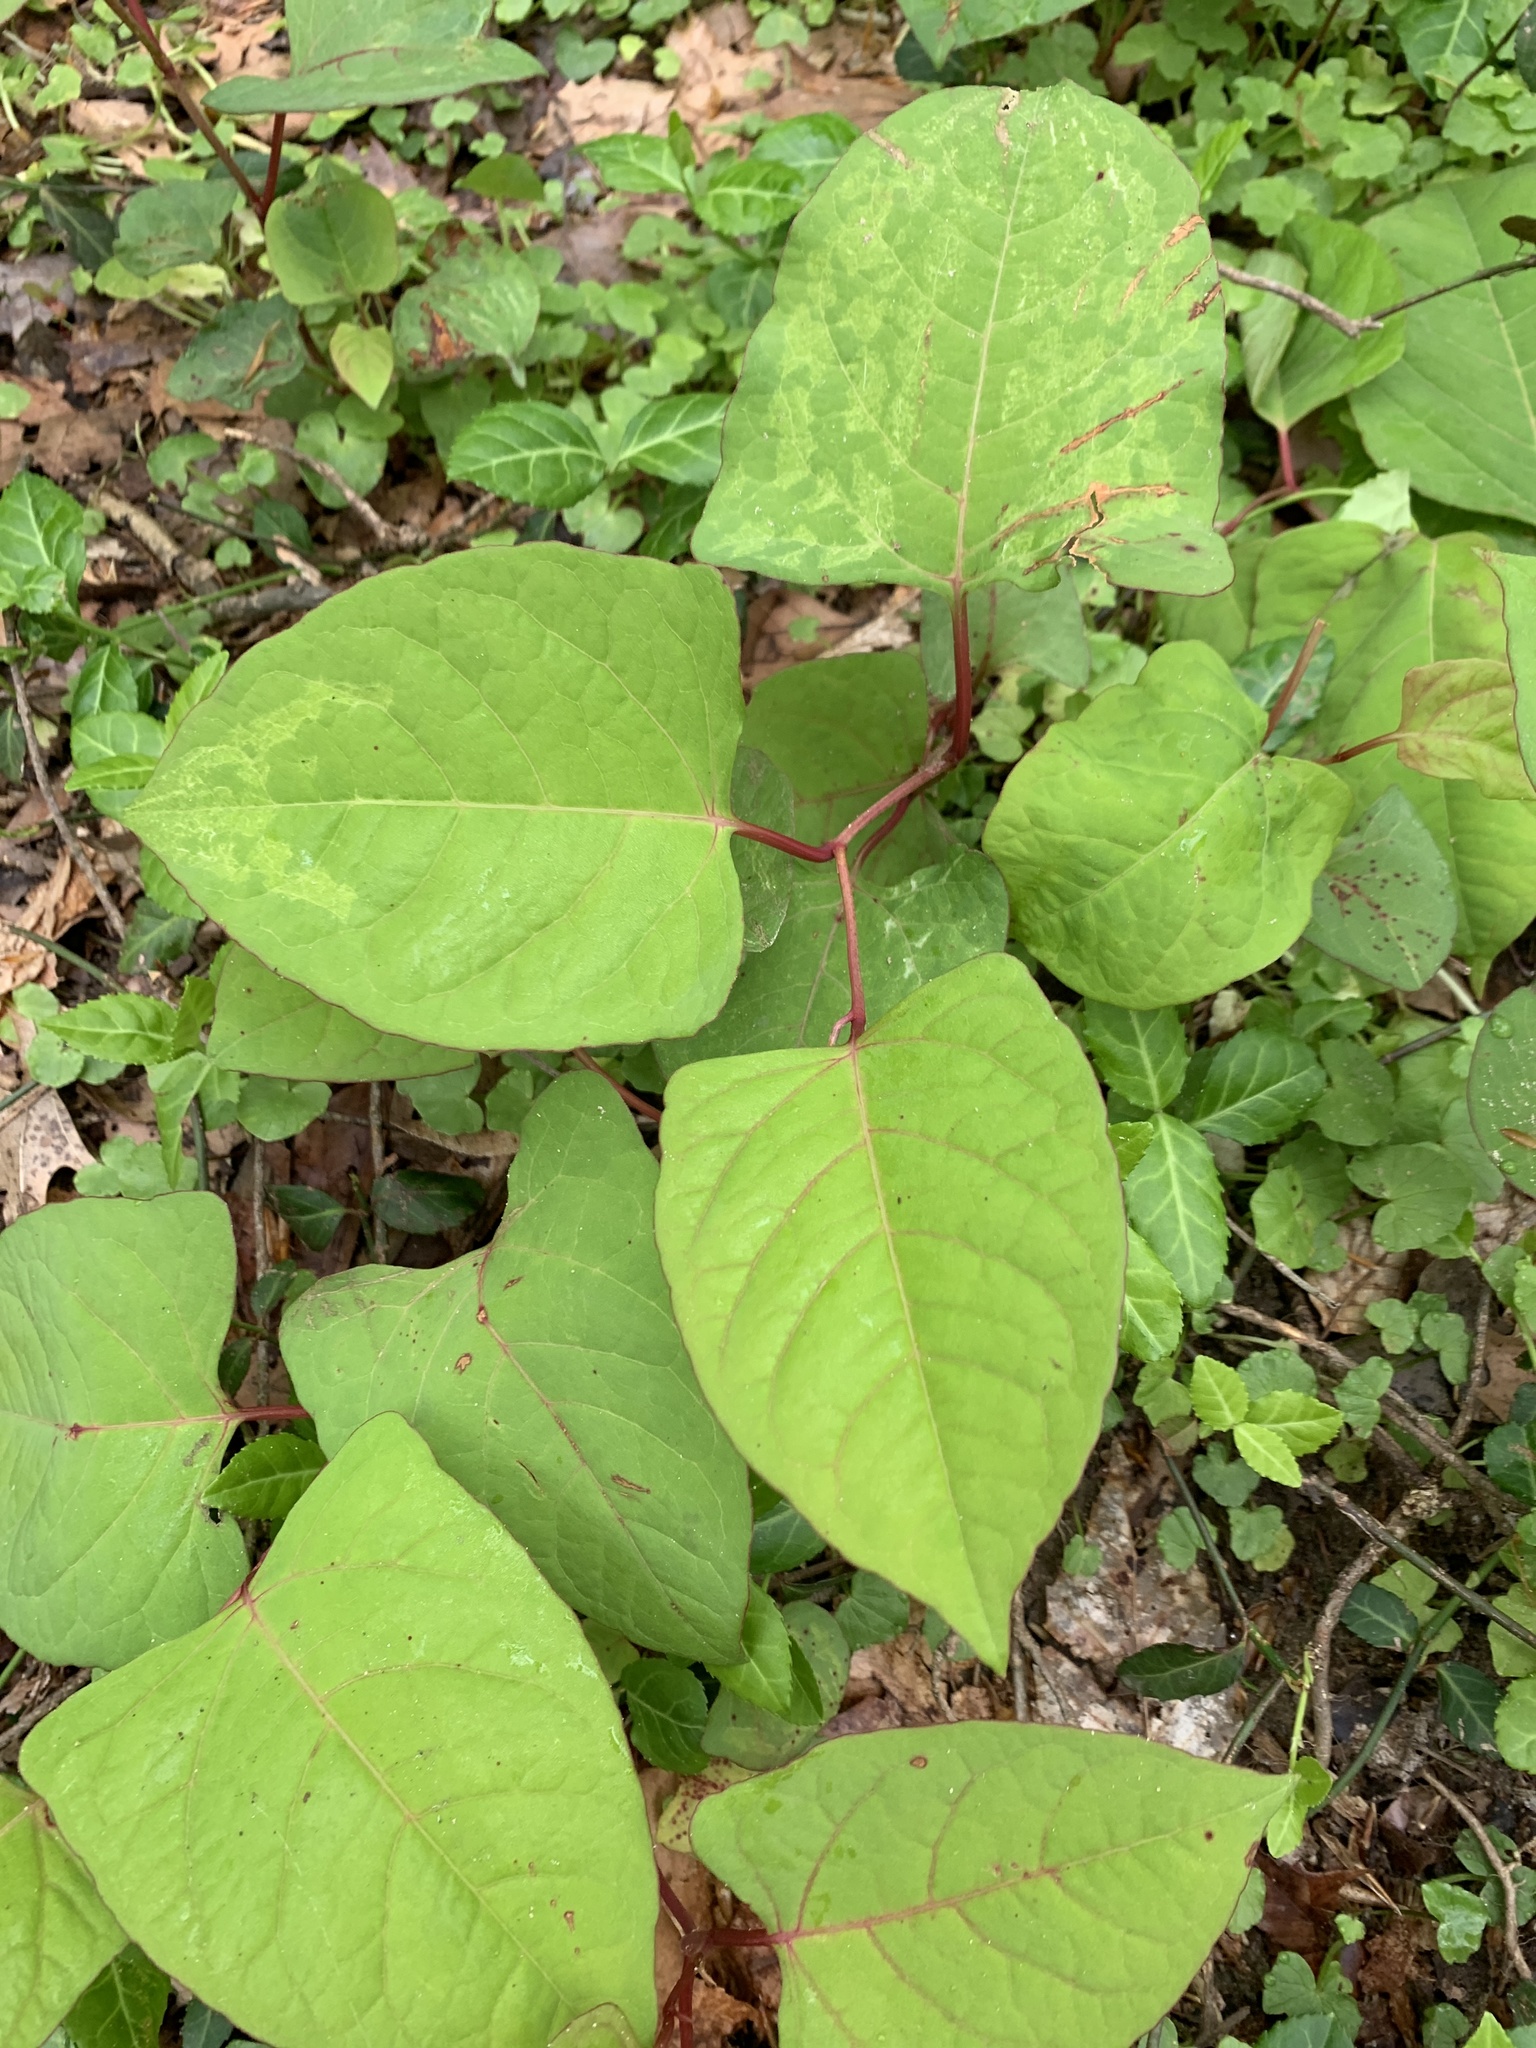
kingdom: Plantae
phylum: Tracheophyta
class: Magnoliopsida
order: Caryophyllales
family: Polygonaceae
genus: Reynoutria
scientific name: Reynoutria japonica
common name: Japanese knotweed
